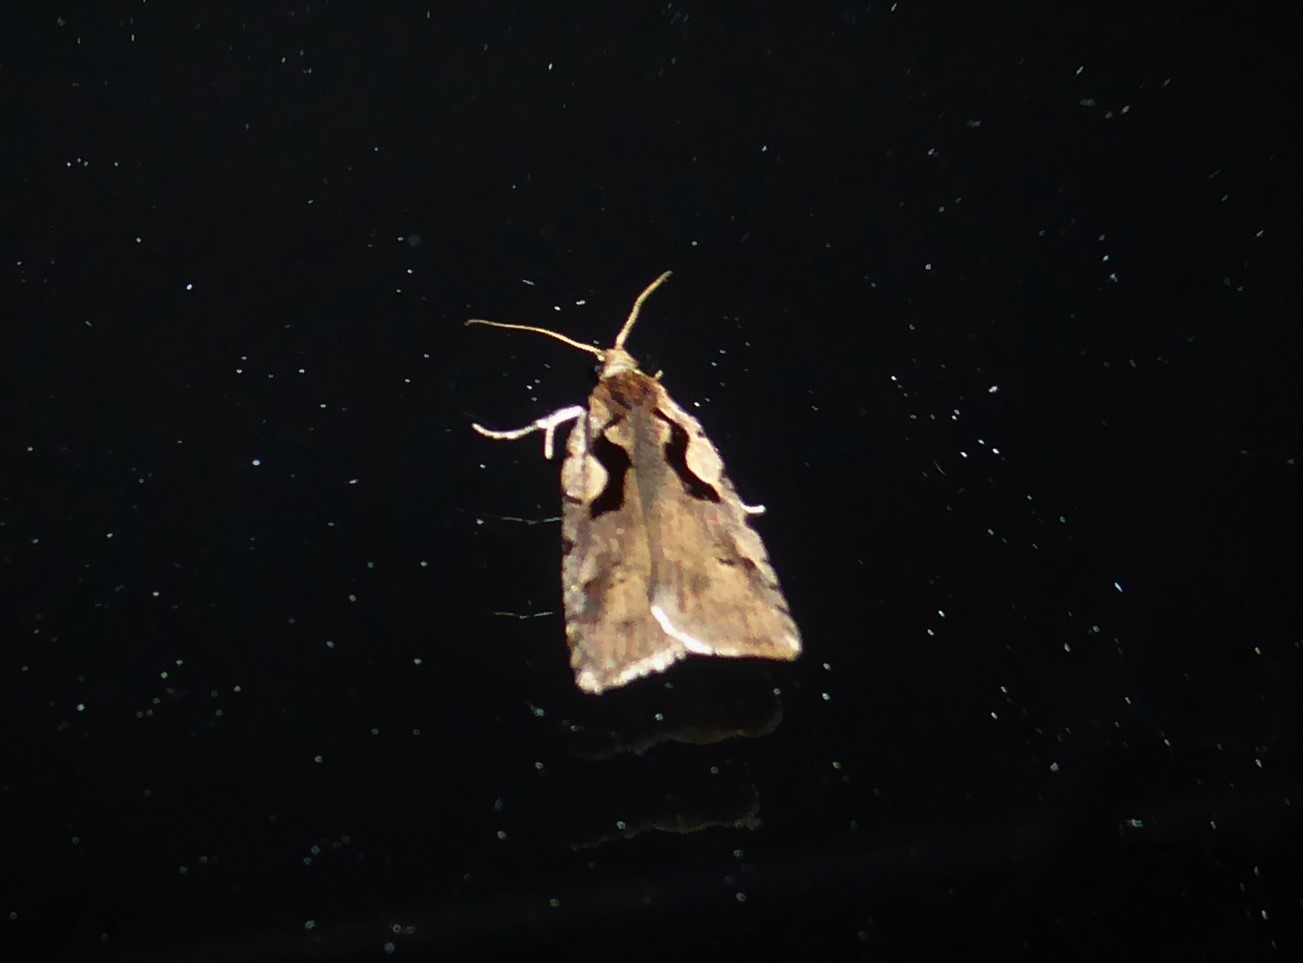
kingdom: Animalia
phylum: Arthropoda
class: Insecta
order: Lepidoptera
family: Tortricidae
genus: Cnephasia
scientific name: Cnephasia jactatana
